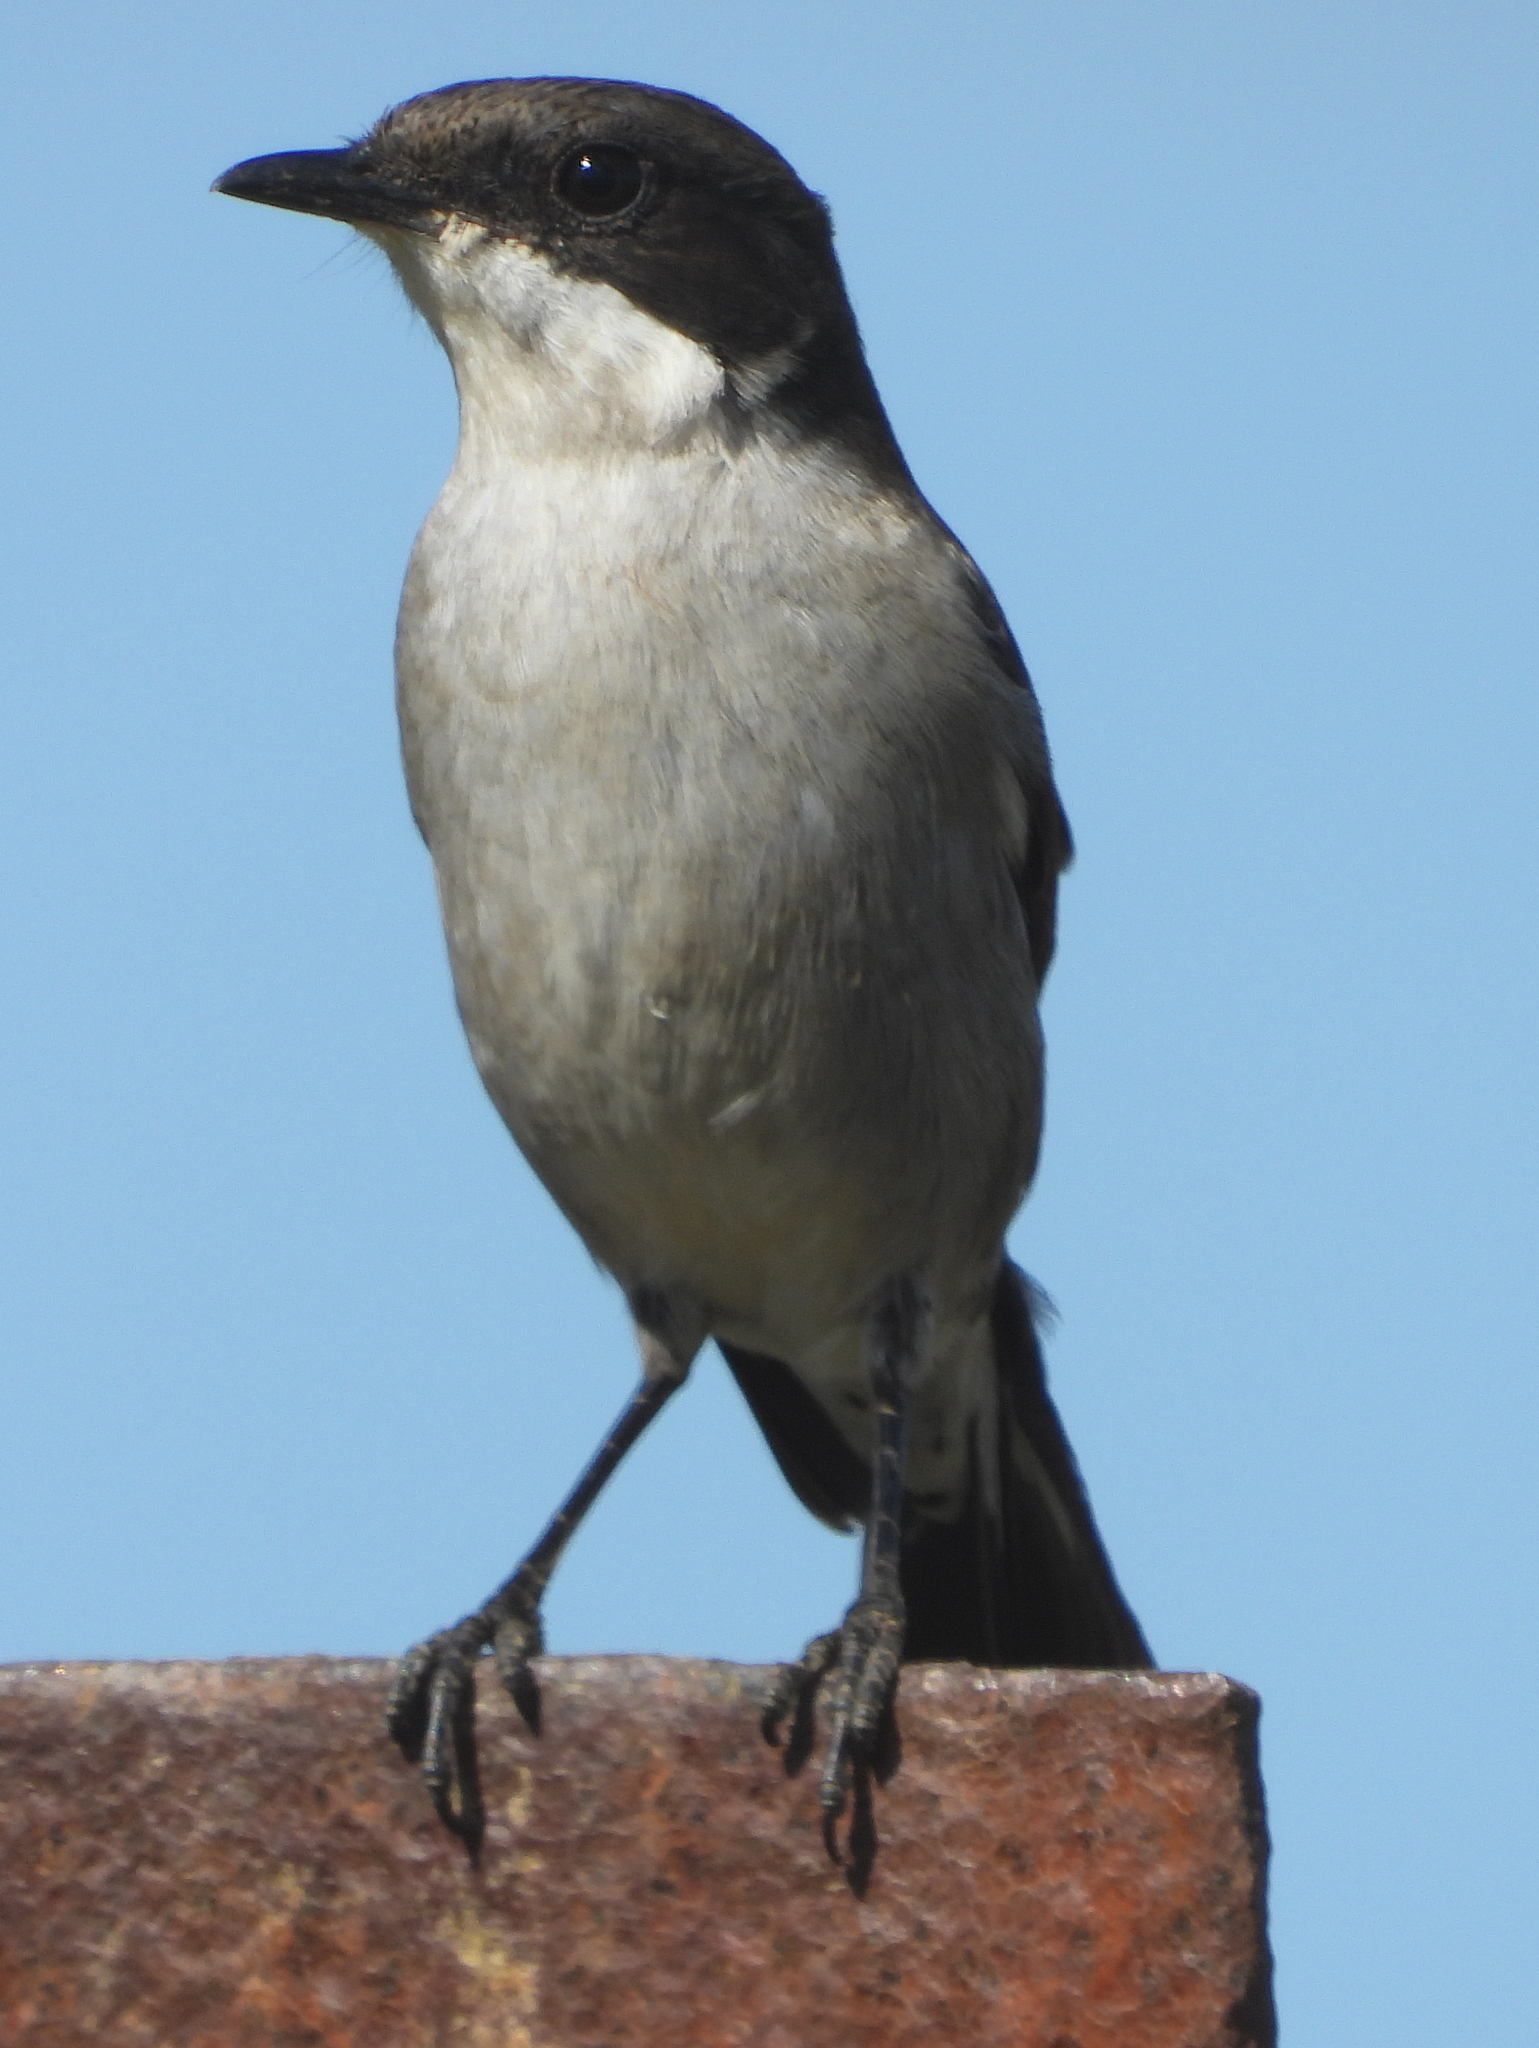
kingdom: Animalia
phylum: Chordata
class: Aves
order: Passeriformes
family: Muscicapidae
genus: Sigelus
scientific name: Sigelus silens
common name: Fiscal flycatcher
